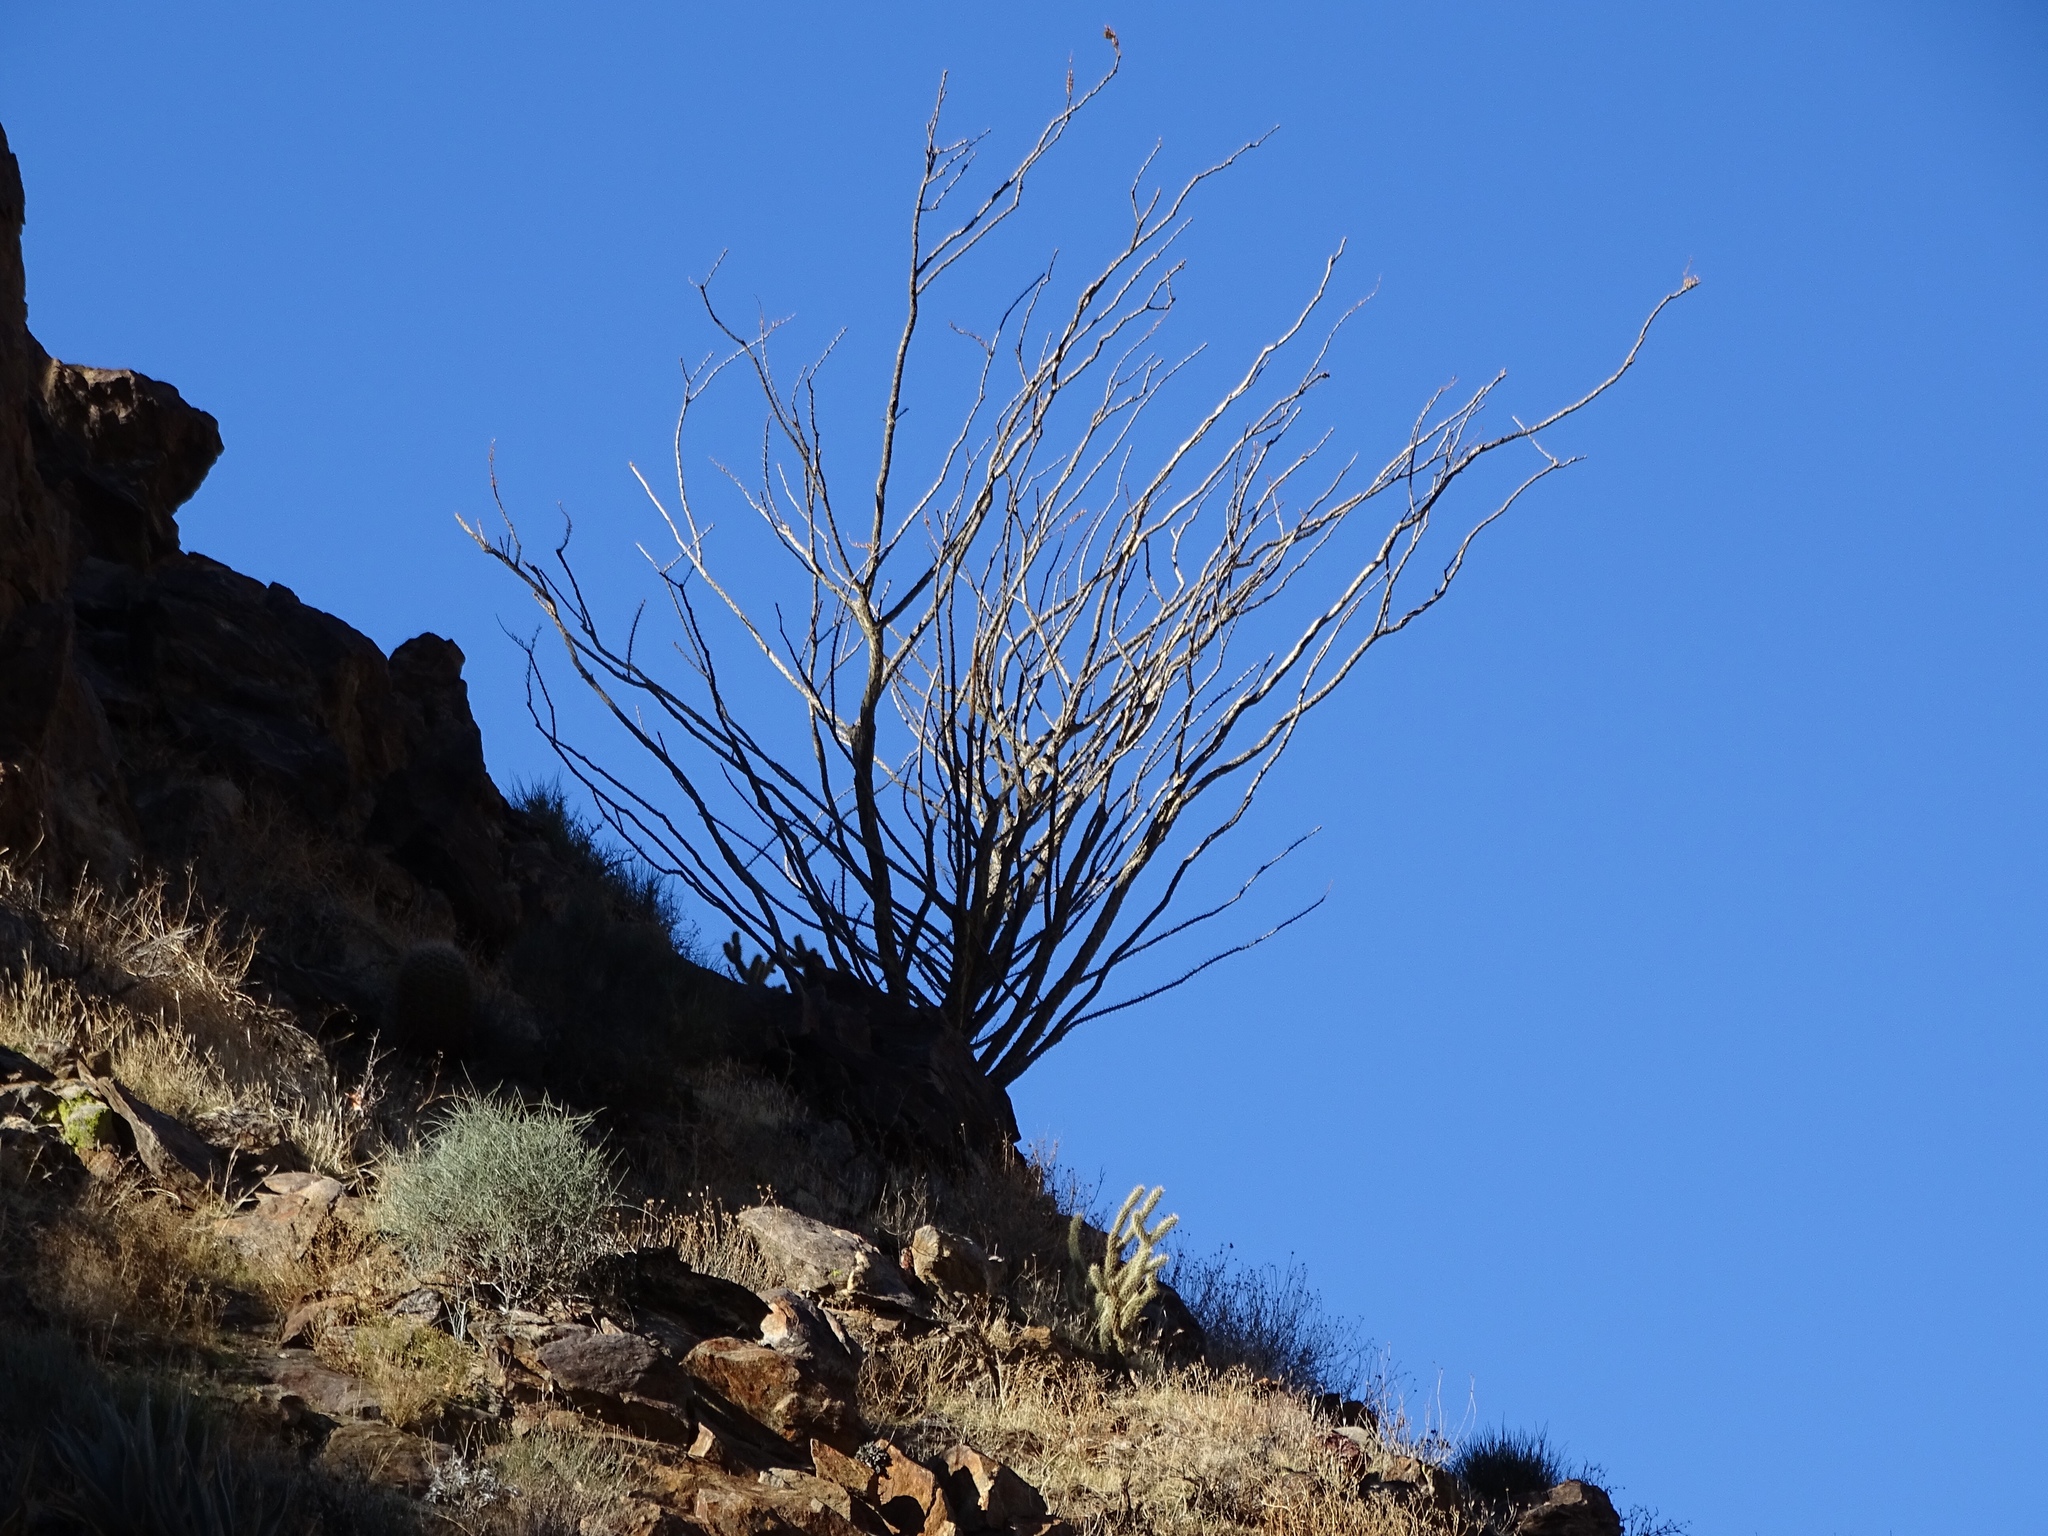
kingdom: Plantae
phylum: Tracheophyta
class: Magnoliopsida
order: Ericales
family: Fouquieriaceae
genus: Fouquieria
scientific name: Fouquieria splendens
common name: Vine-cactus
